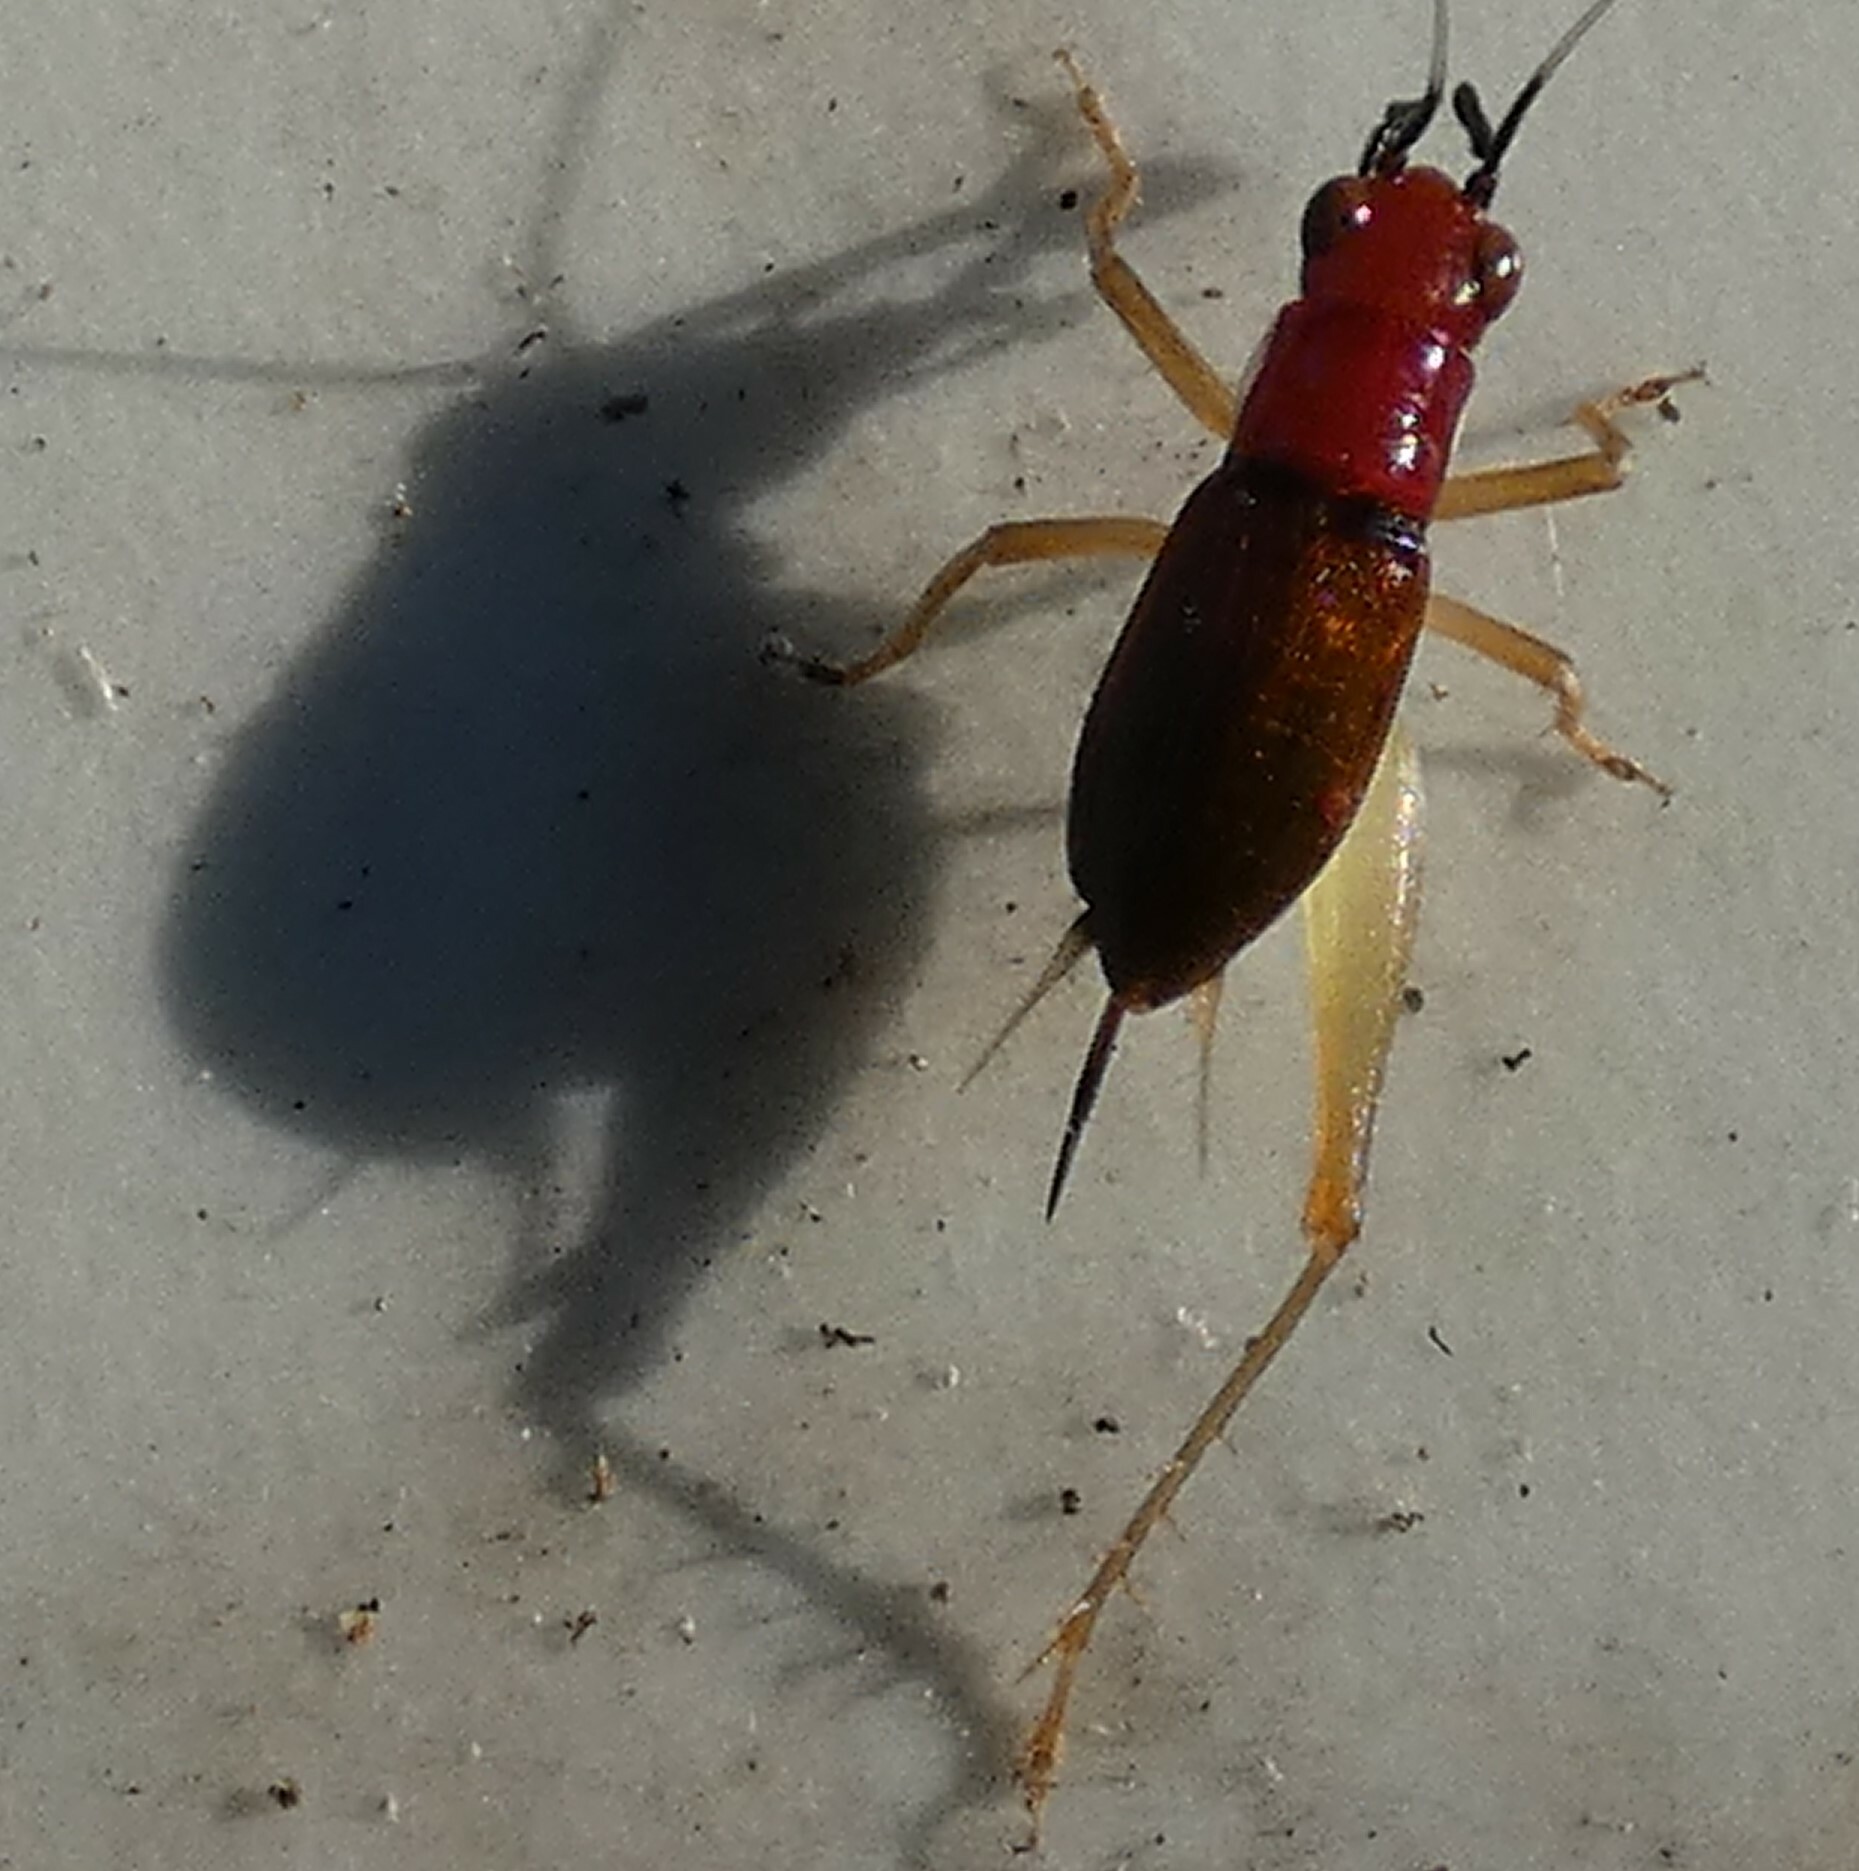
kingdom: Animalia
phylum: Arthropoda
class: Insecta
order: Orthoptera
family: Trigonidiidae
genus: Phyllopalpus
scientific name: Phyllopalpus pulchellus
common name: Handsome trig
